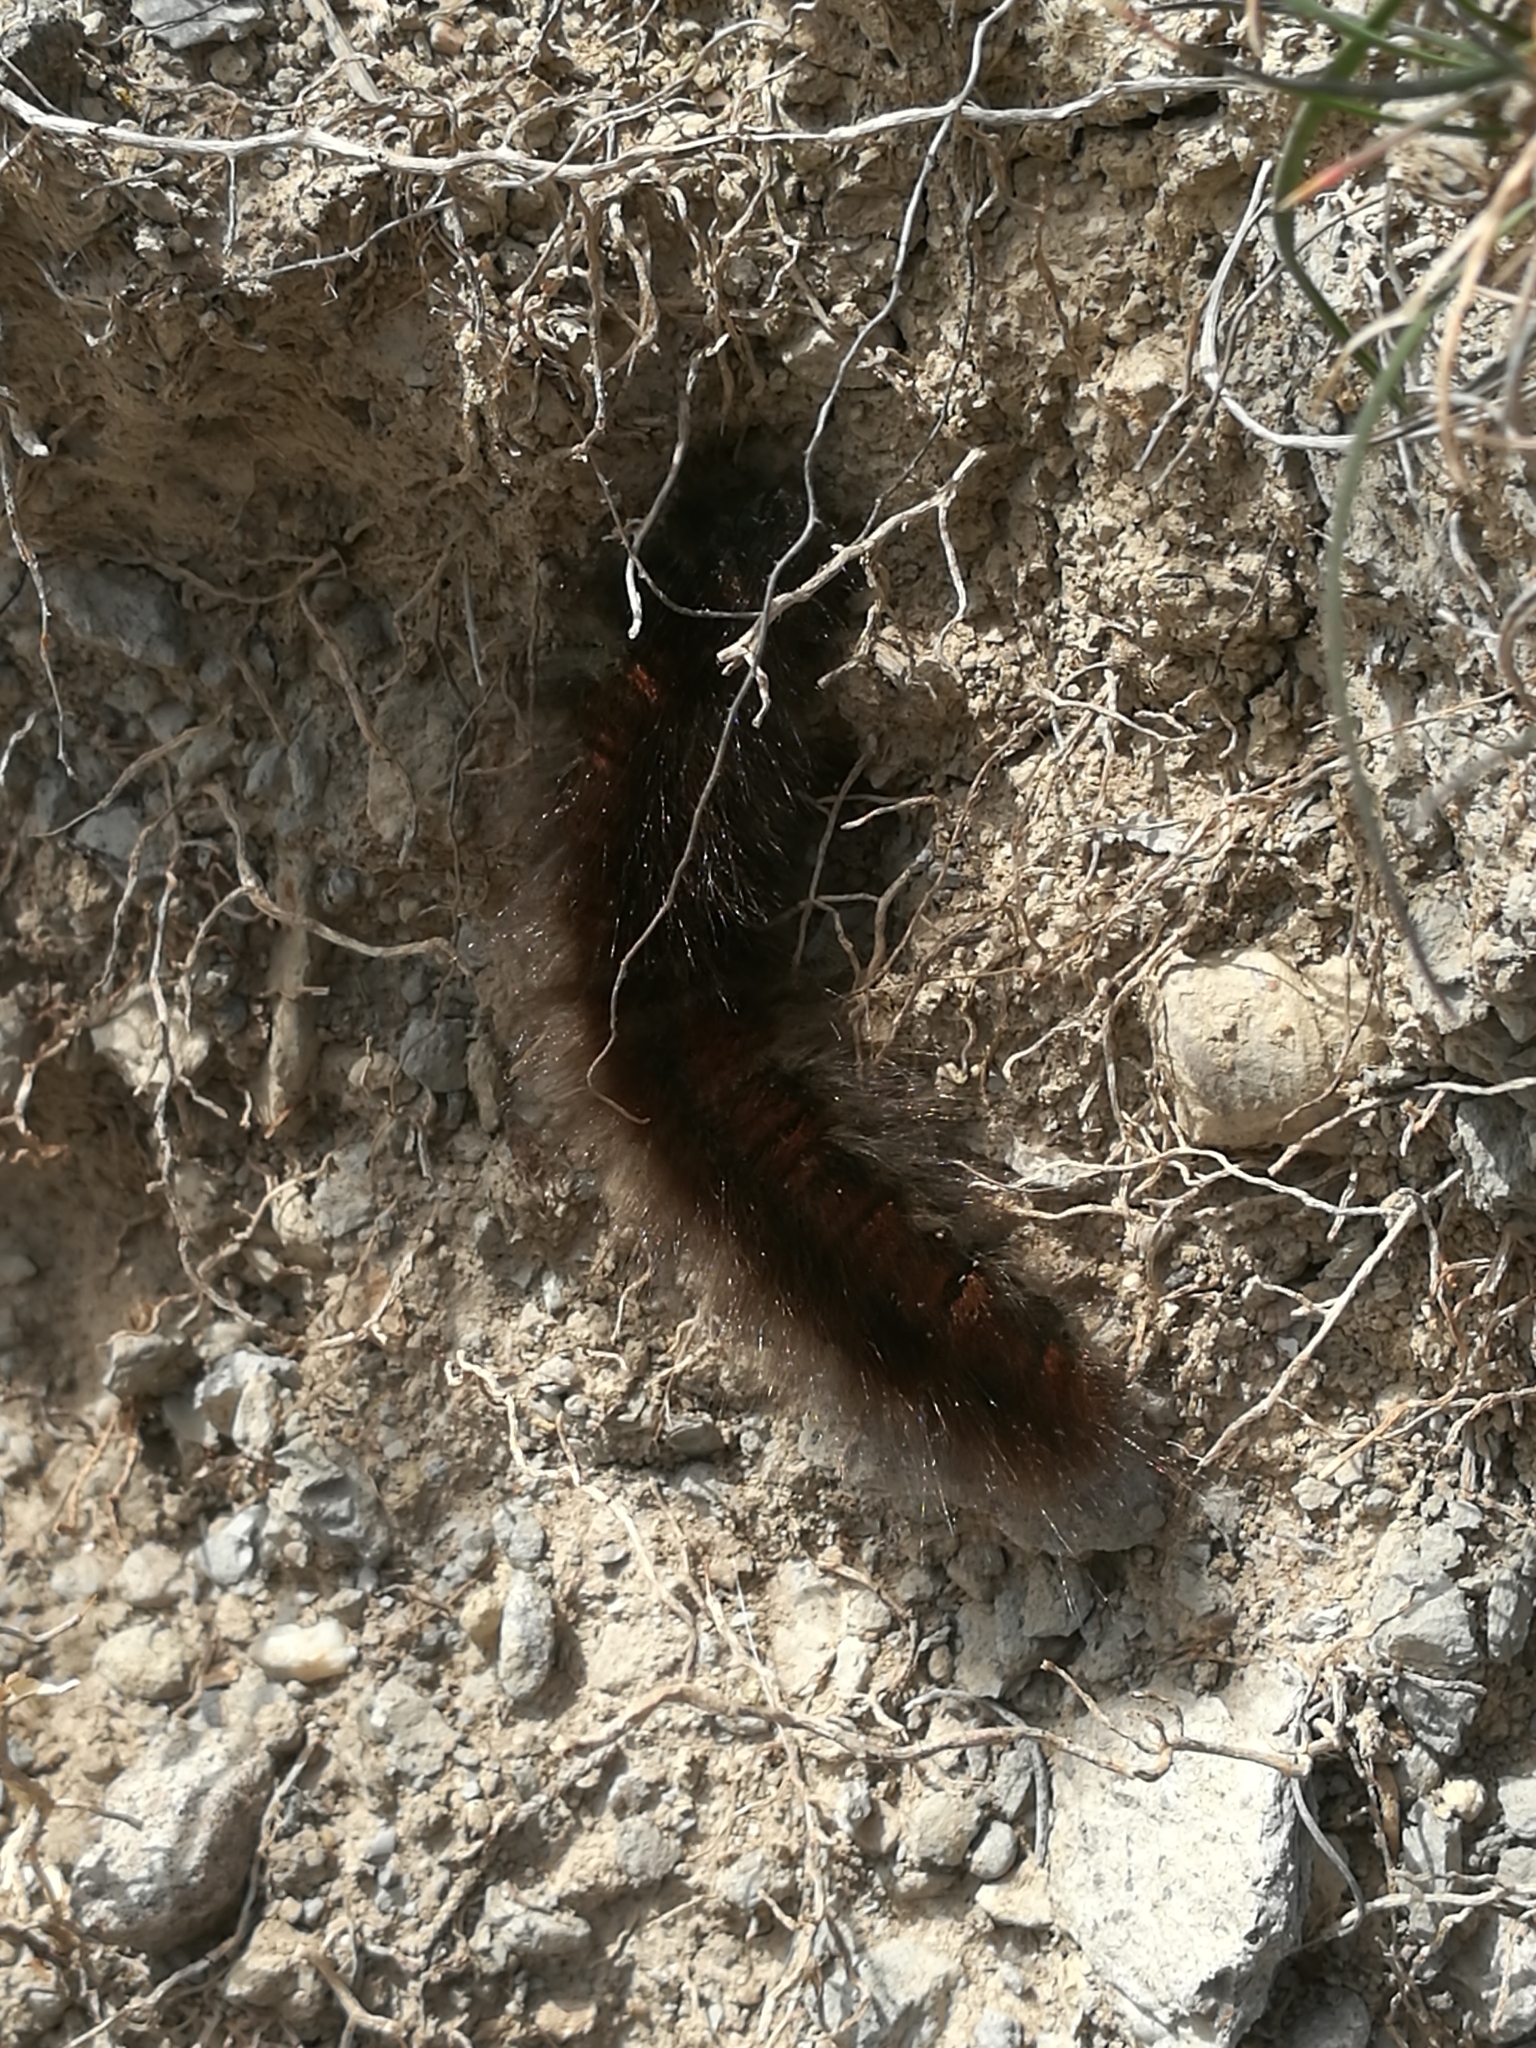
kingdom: Animalia
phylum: Arthropoda
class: Insecta
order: Lepidoptera
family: Lasiocampidae
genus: Macrothylacia
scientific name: Macrothylacia rubi
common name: Fox moth
